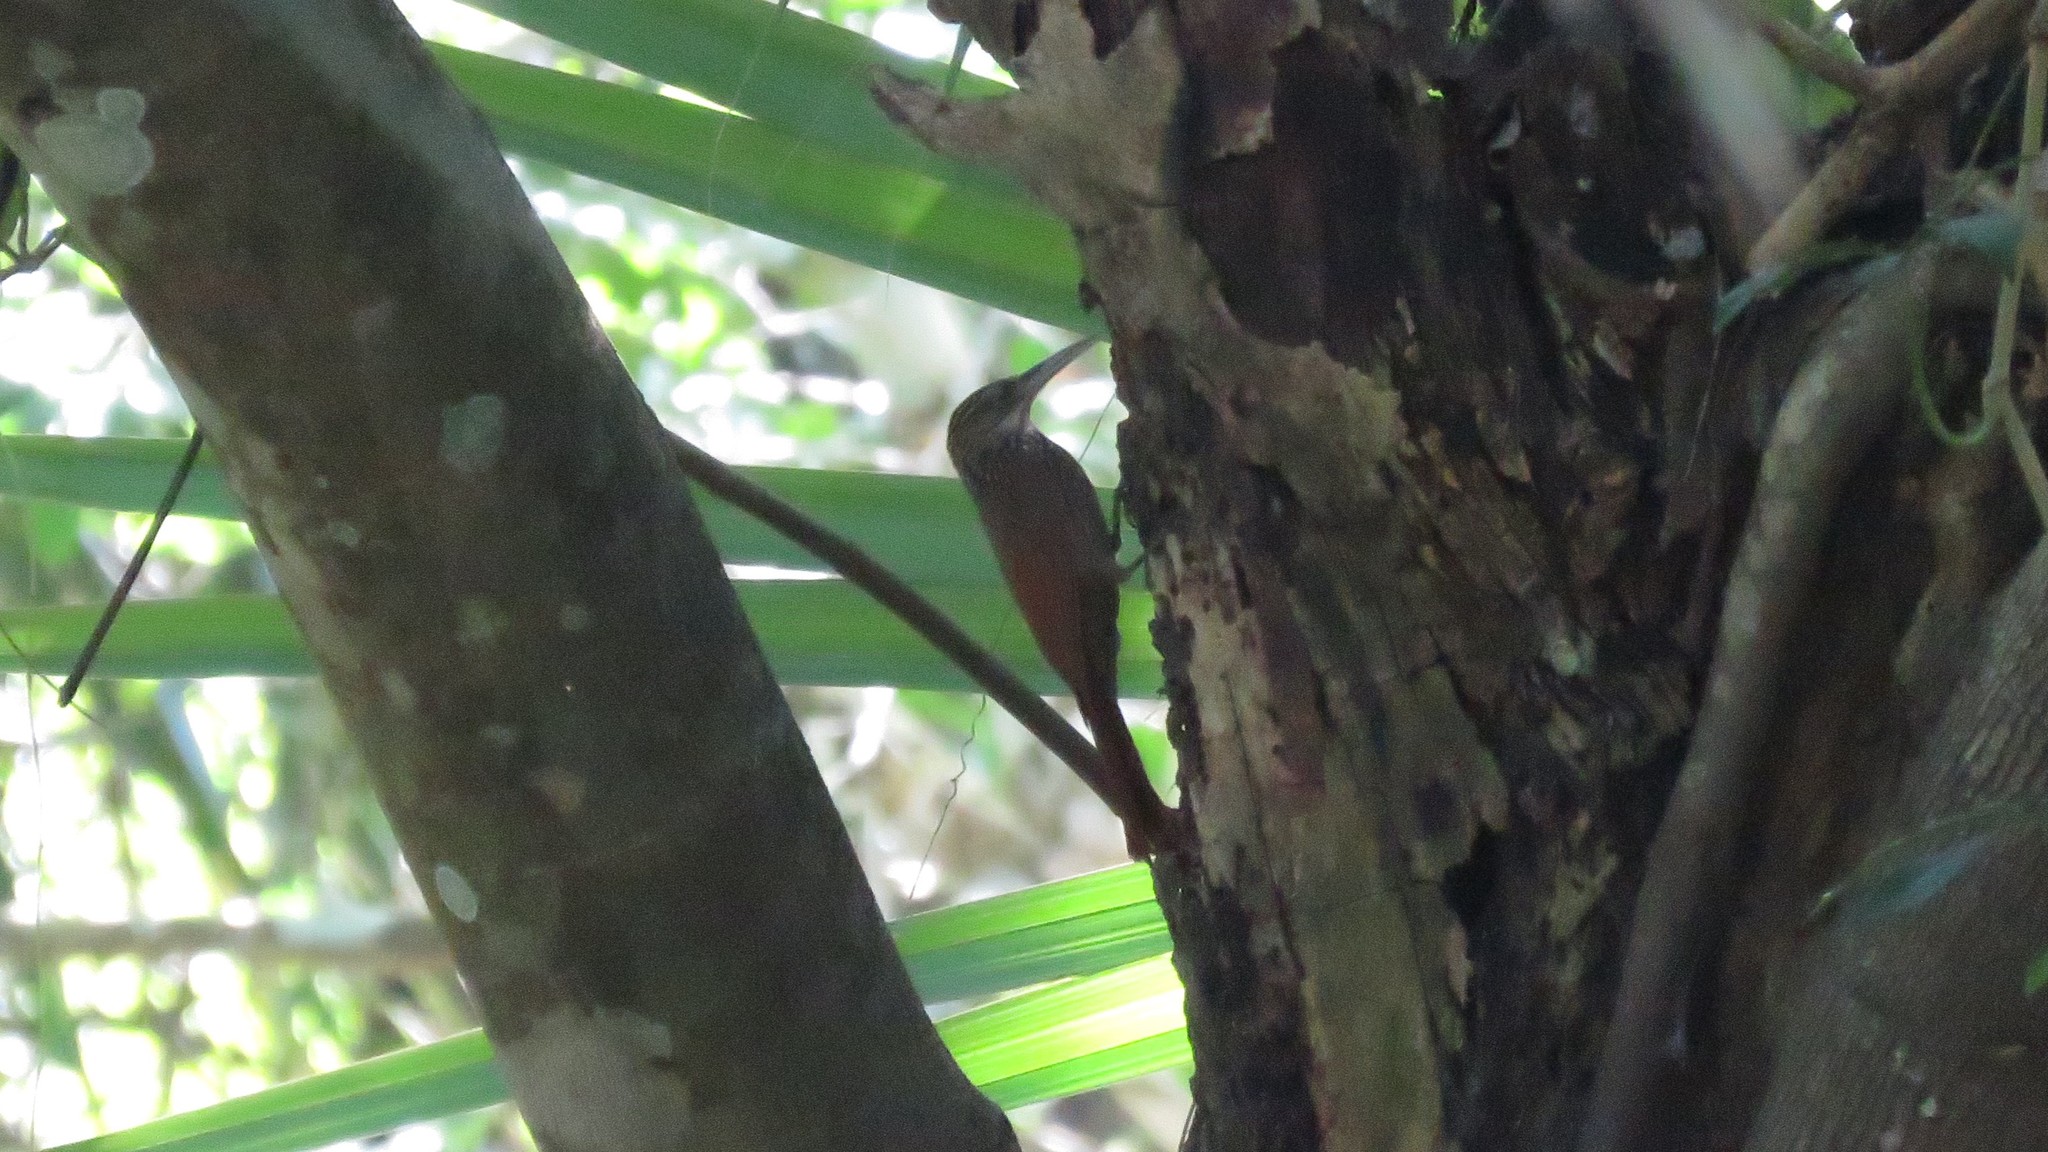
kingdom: Animalia
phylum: Chordata
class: Aves
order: Passeriformes
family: Furnariidae
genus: Xiphorhynchus
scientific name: Xiphorhynchus flavigaster
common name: Ivory-billed woodcreeper
